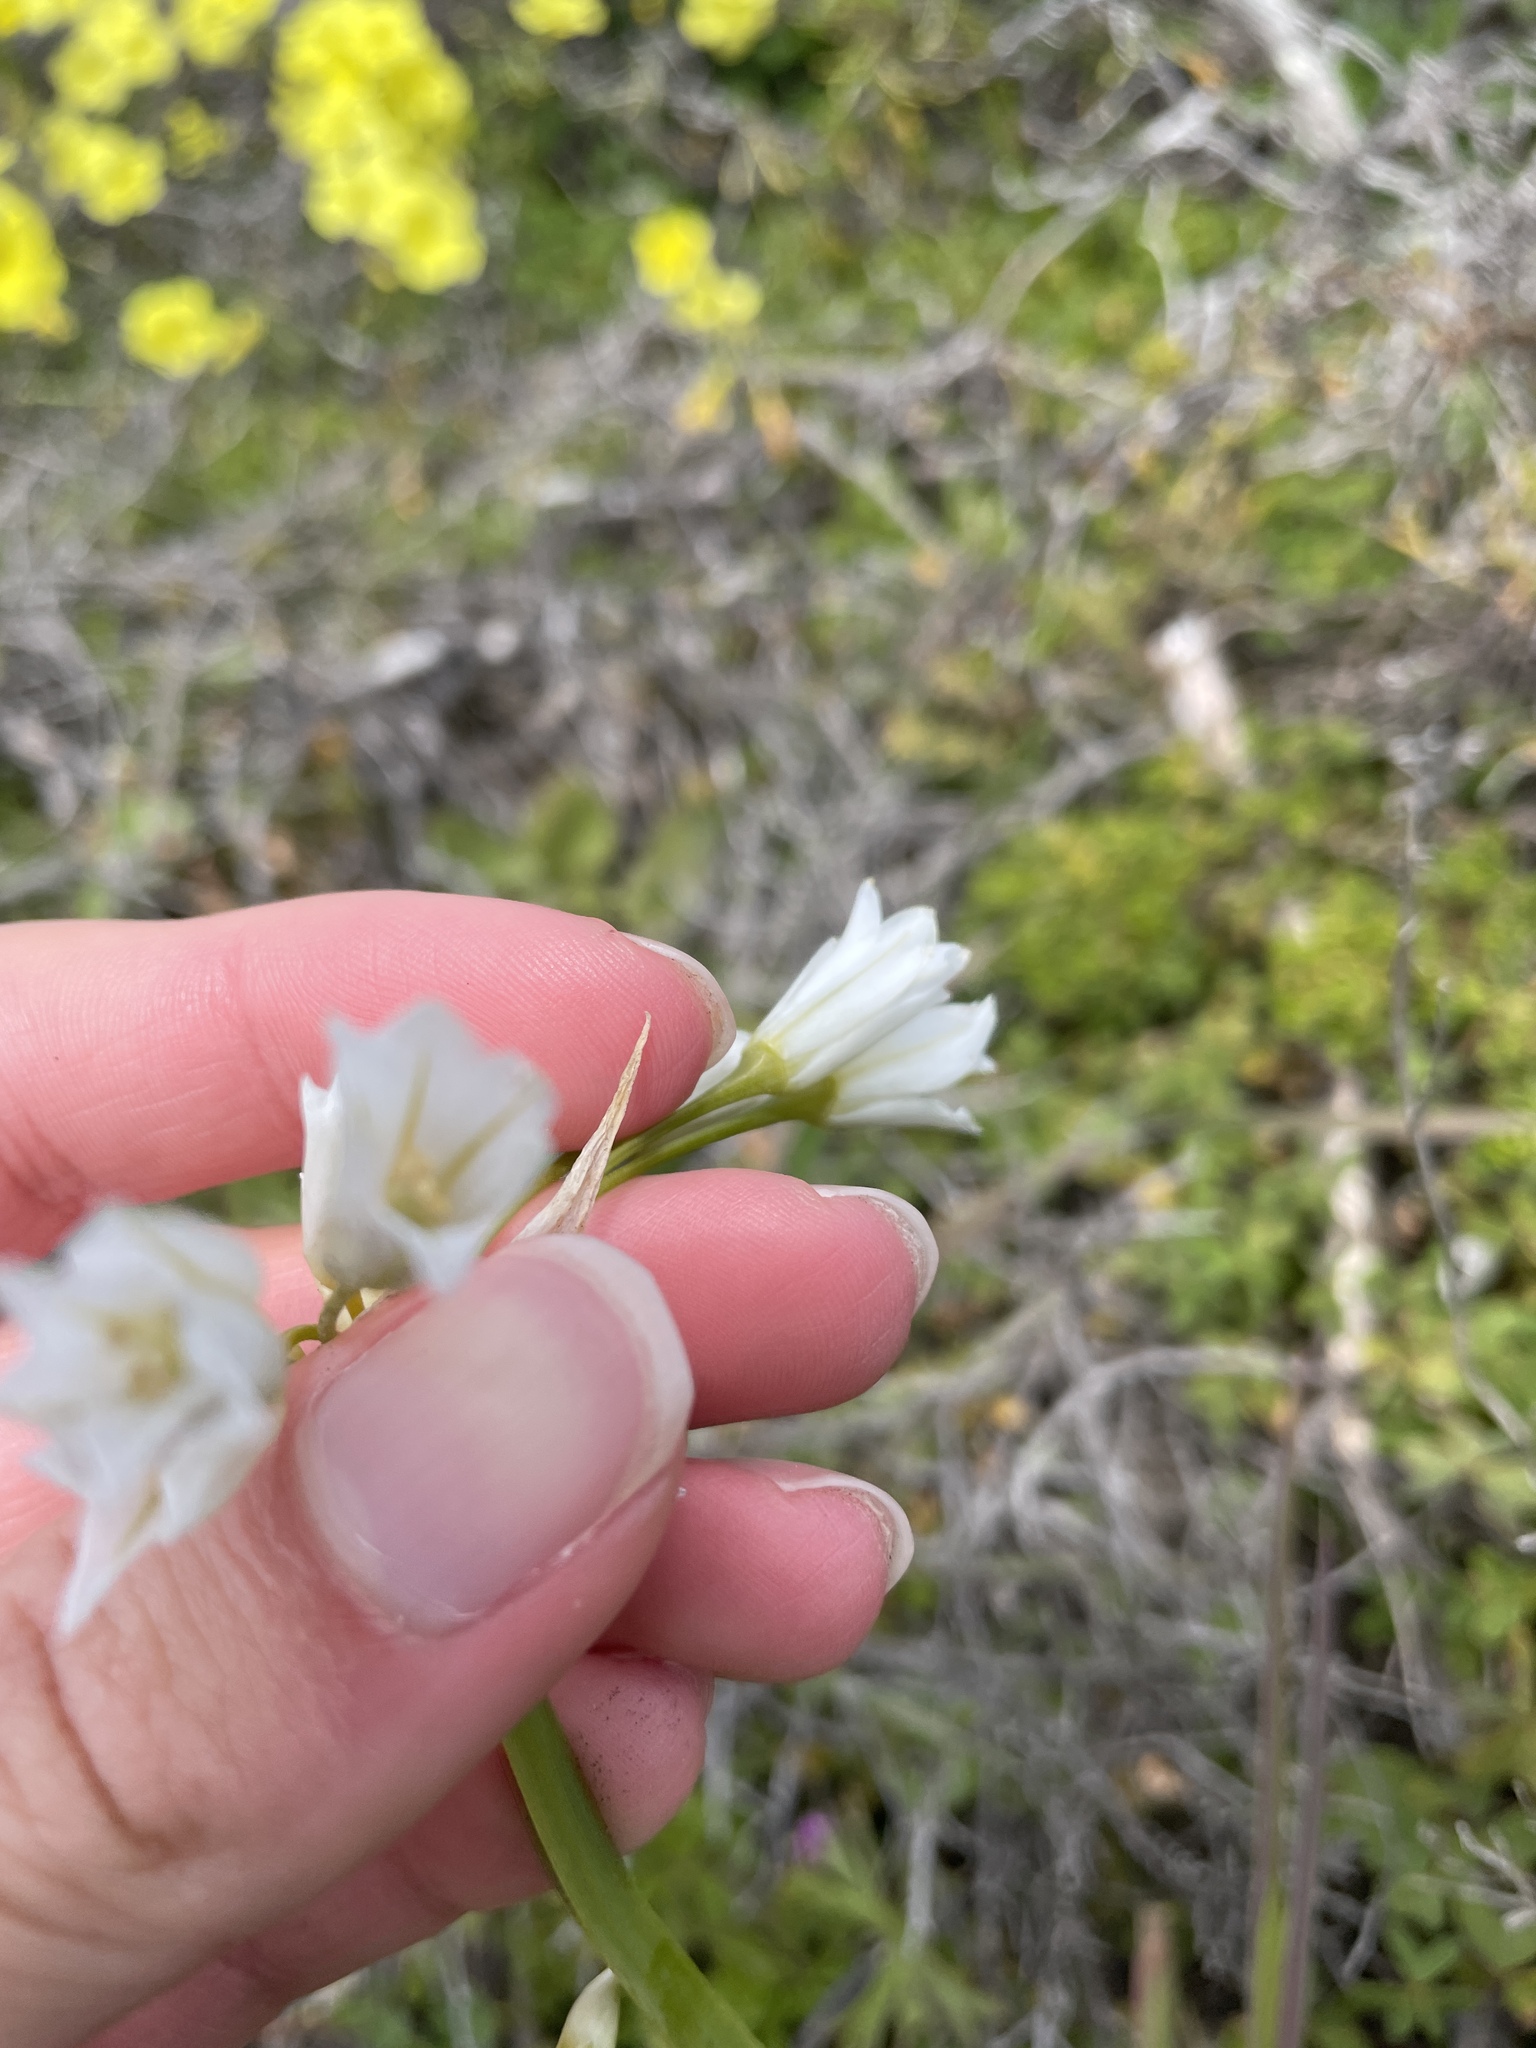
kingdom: Plantae
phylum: Tracheophyta
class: Liliopsida
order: Asparagales
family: Amaryllidaceae
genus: Allium
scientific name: Allium triquetrum
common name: Three-cornered garlic
